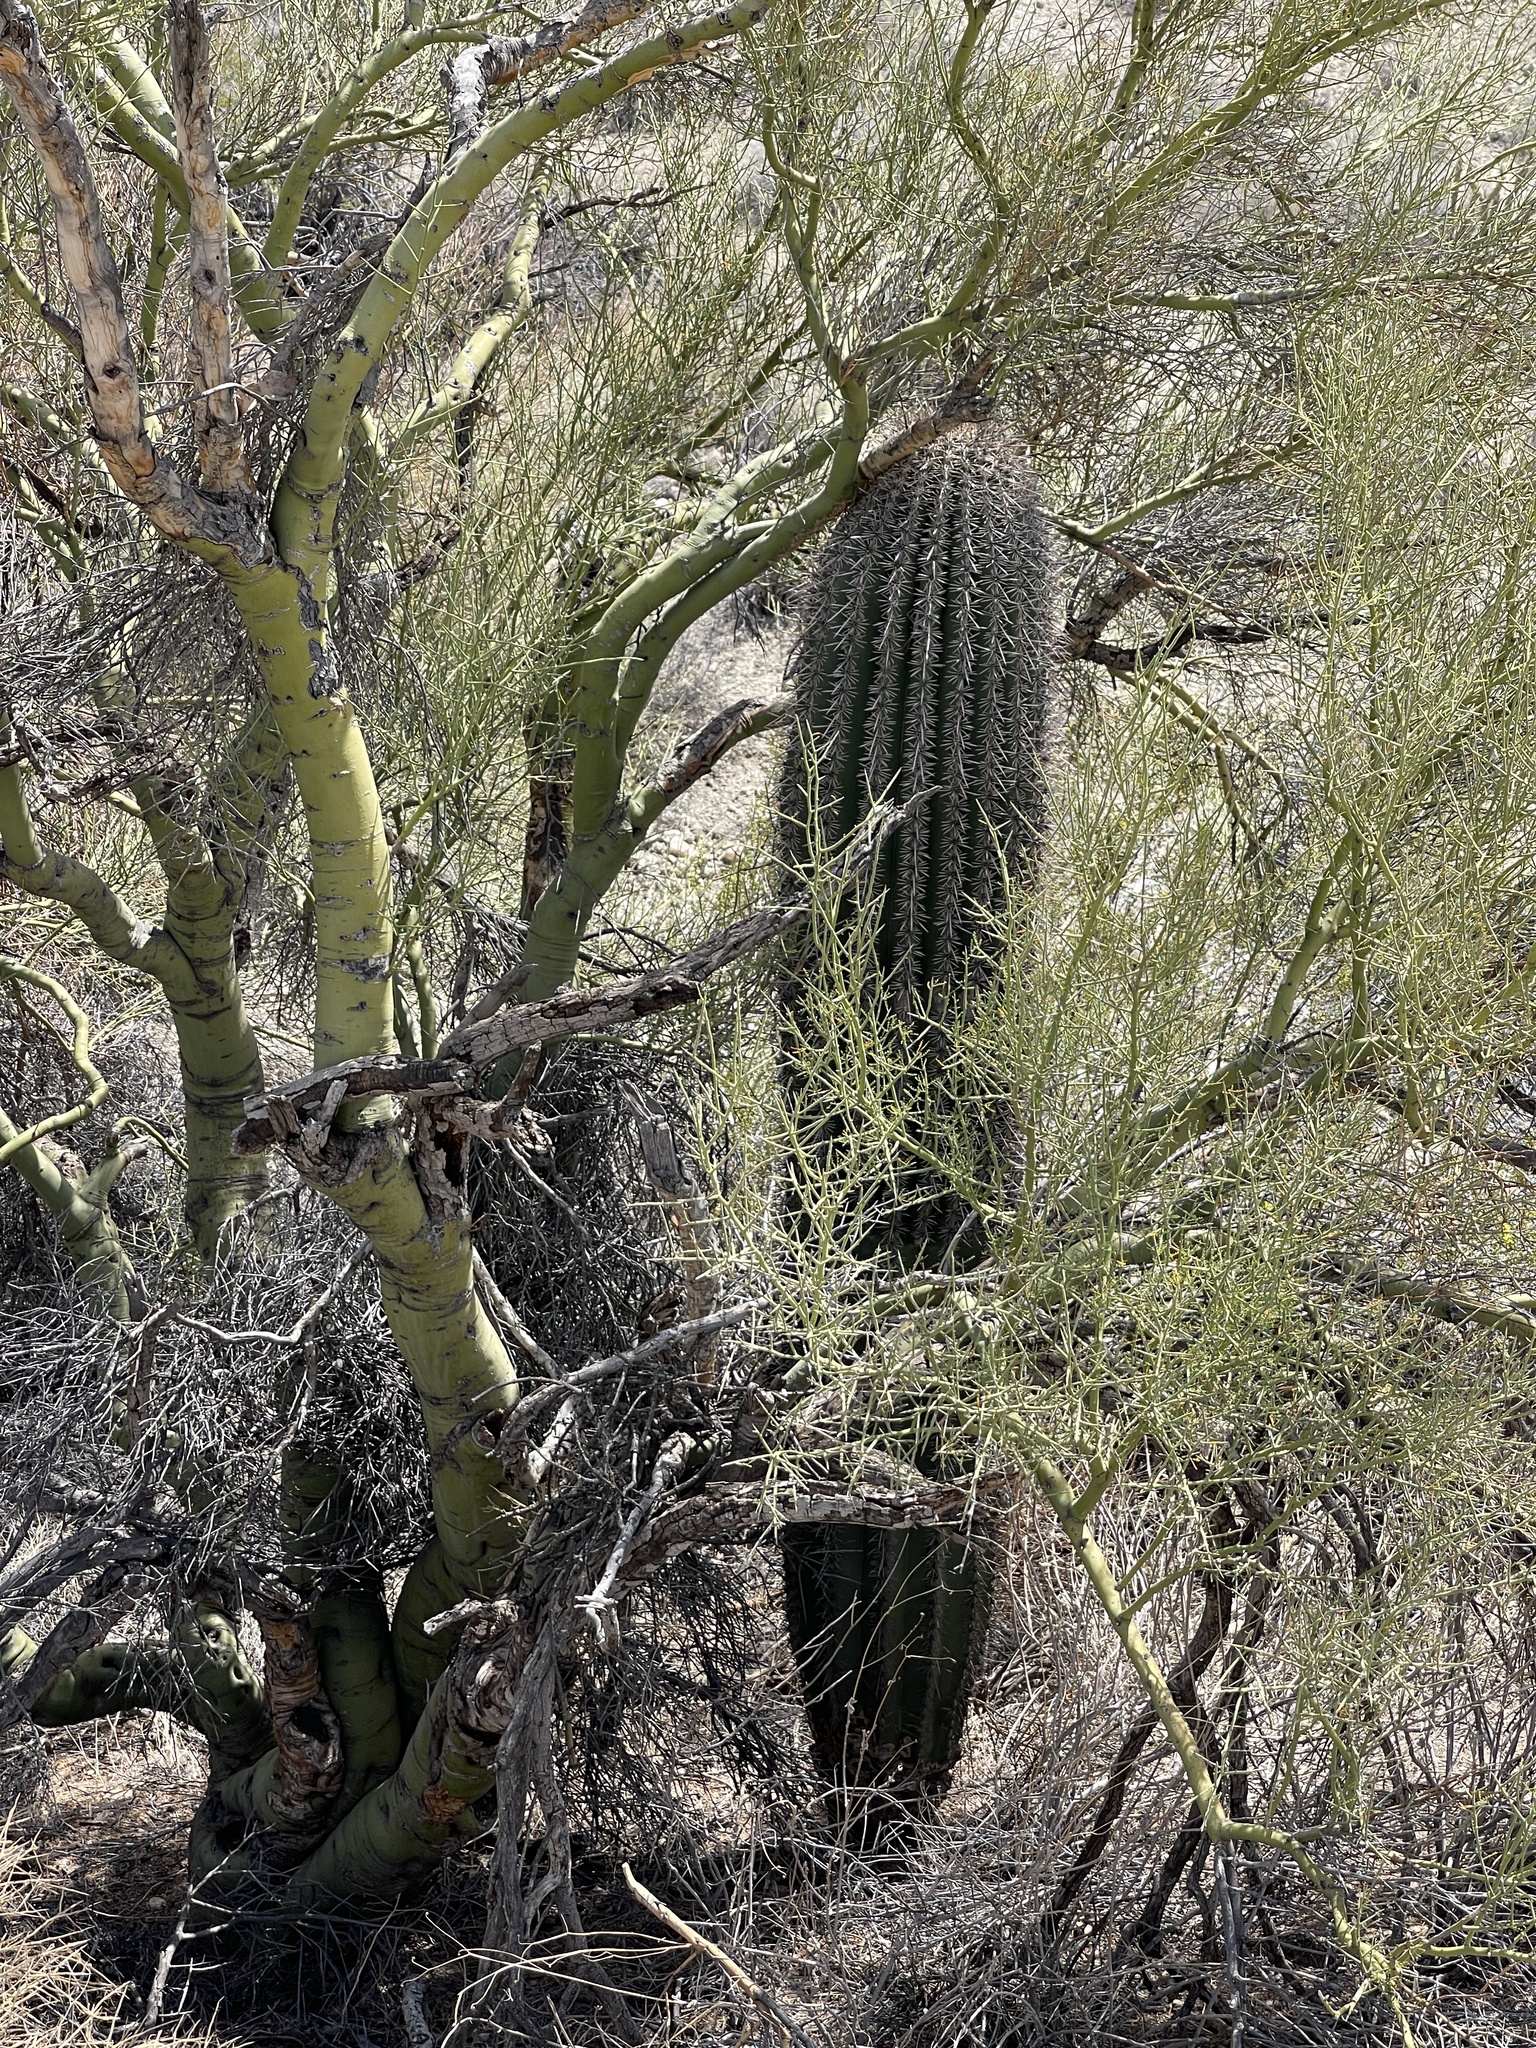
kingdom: Plantae
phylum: Tracheophyta
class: Magnoliopsida
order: Caryophyllales
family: Cactaceae
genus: Carnegiea
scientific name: Carnegiea gigantea
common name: Saguaro
